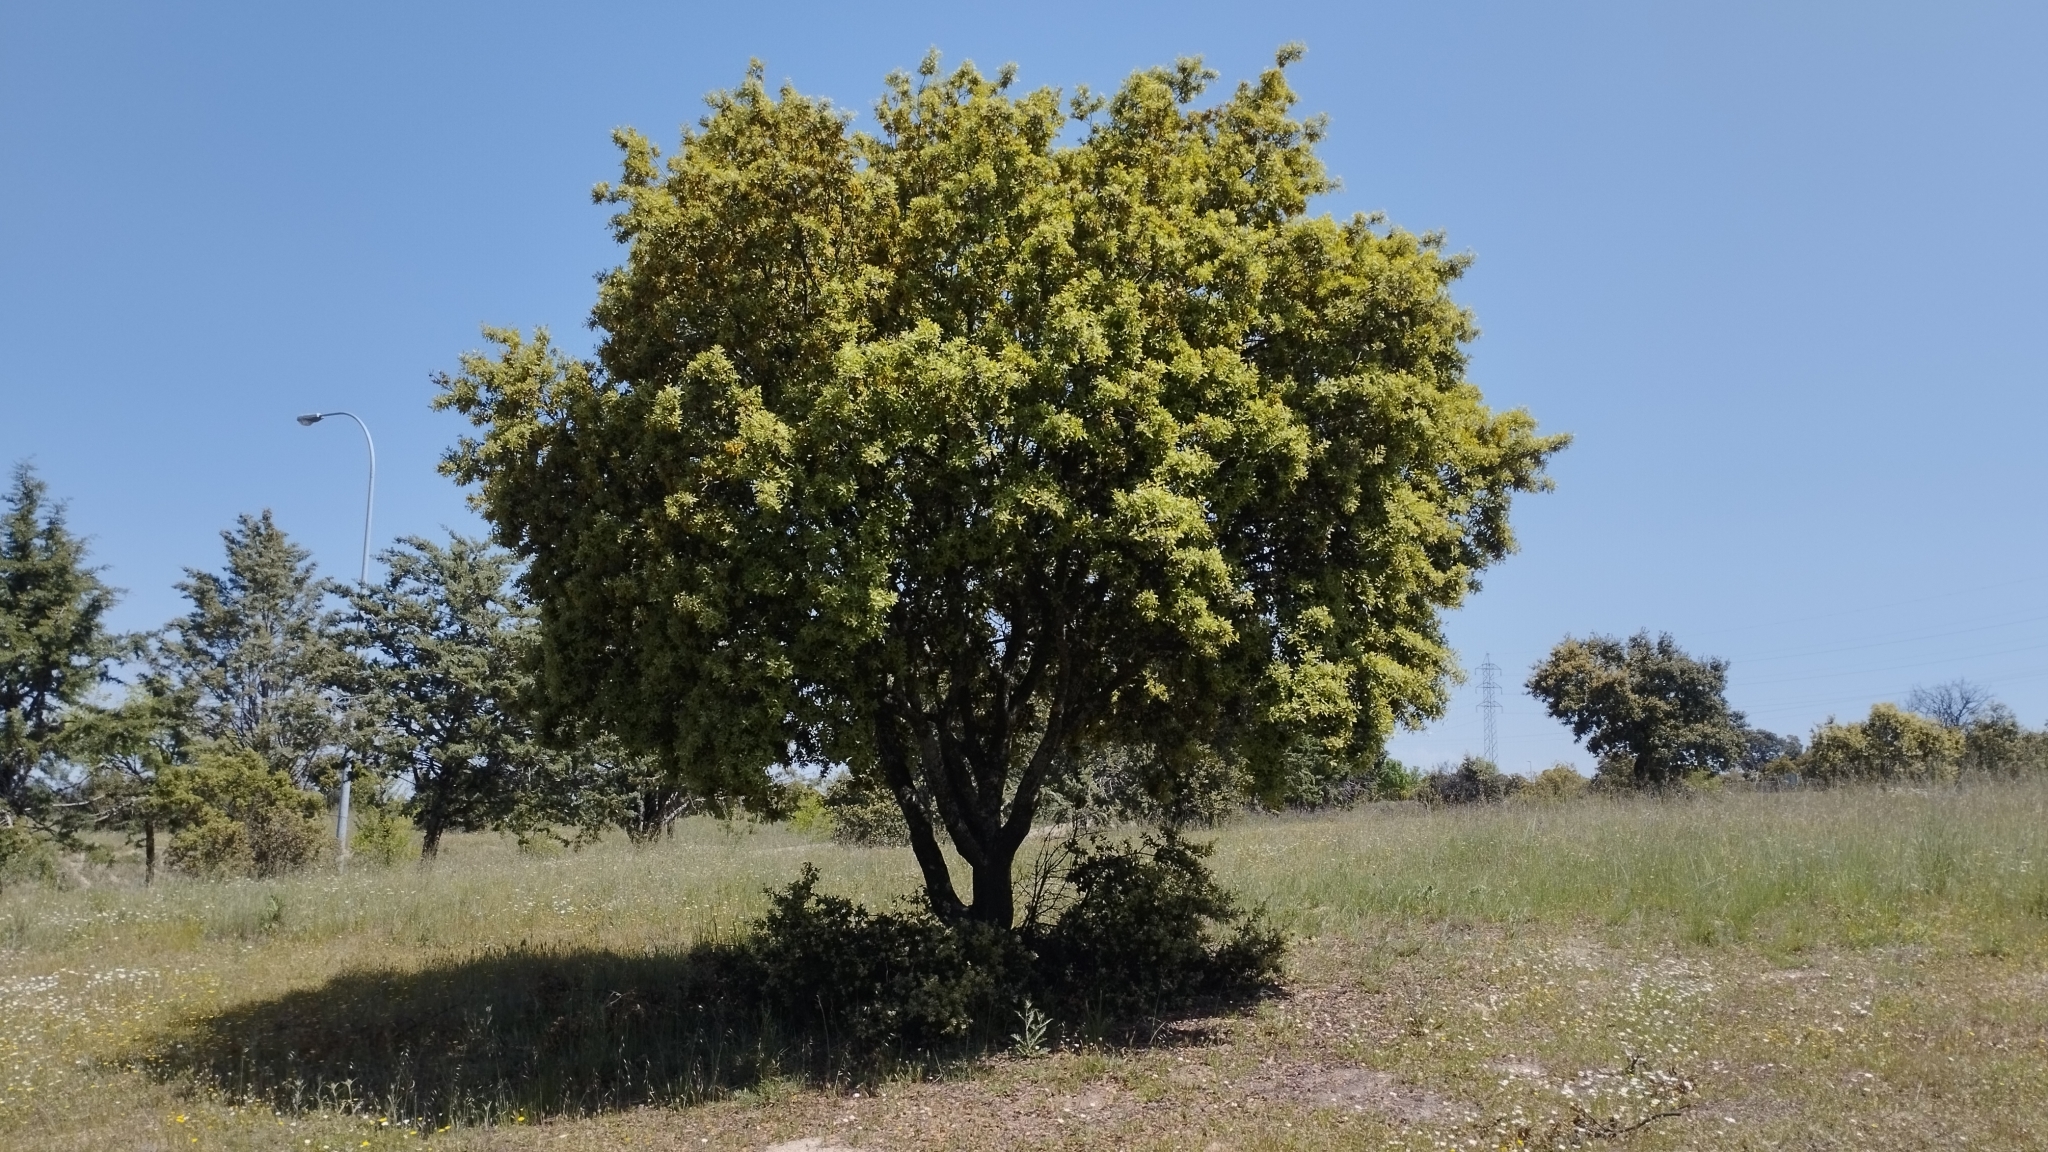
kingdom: Plantae
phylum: Tracheophyta
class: Magnoliopsida
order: Fagales
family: Fagaceae
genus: Quercus
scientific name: Quercus rotundifolia
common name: Holm oak
